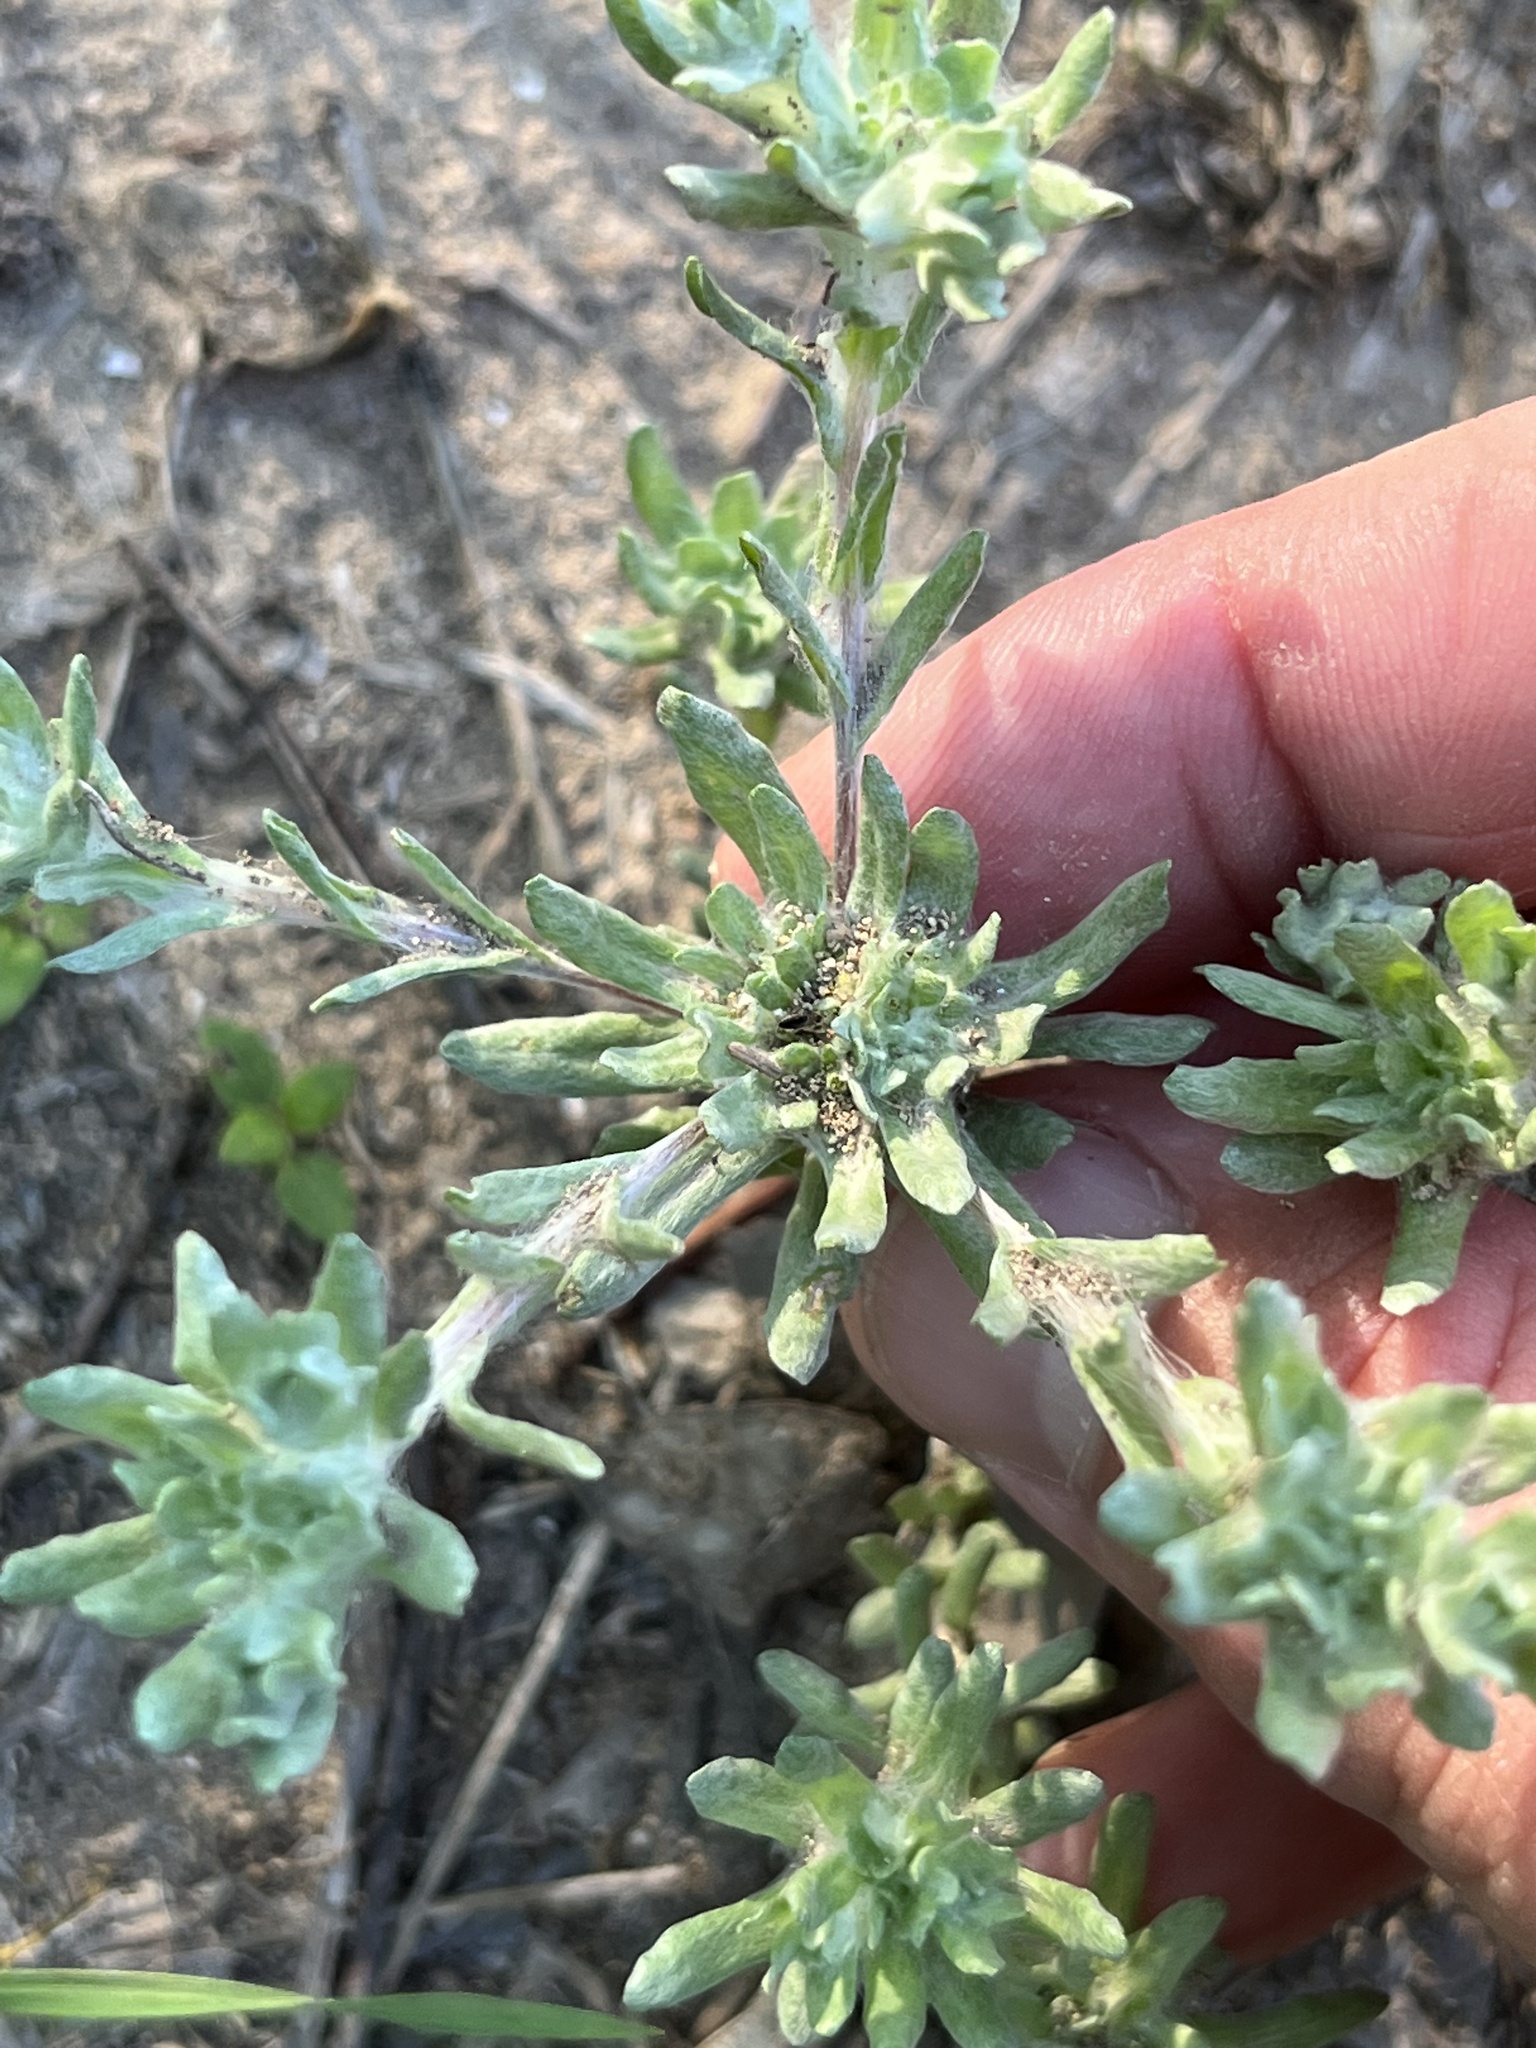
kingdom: Plantae
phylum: Tracheophyta
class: Magnoliopsida
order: Asterales
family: Asteraceae
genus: Diaperia
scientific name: Diaperia prolifera
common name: Big-head rabbit-tobacco
